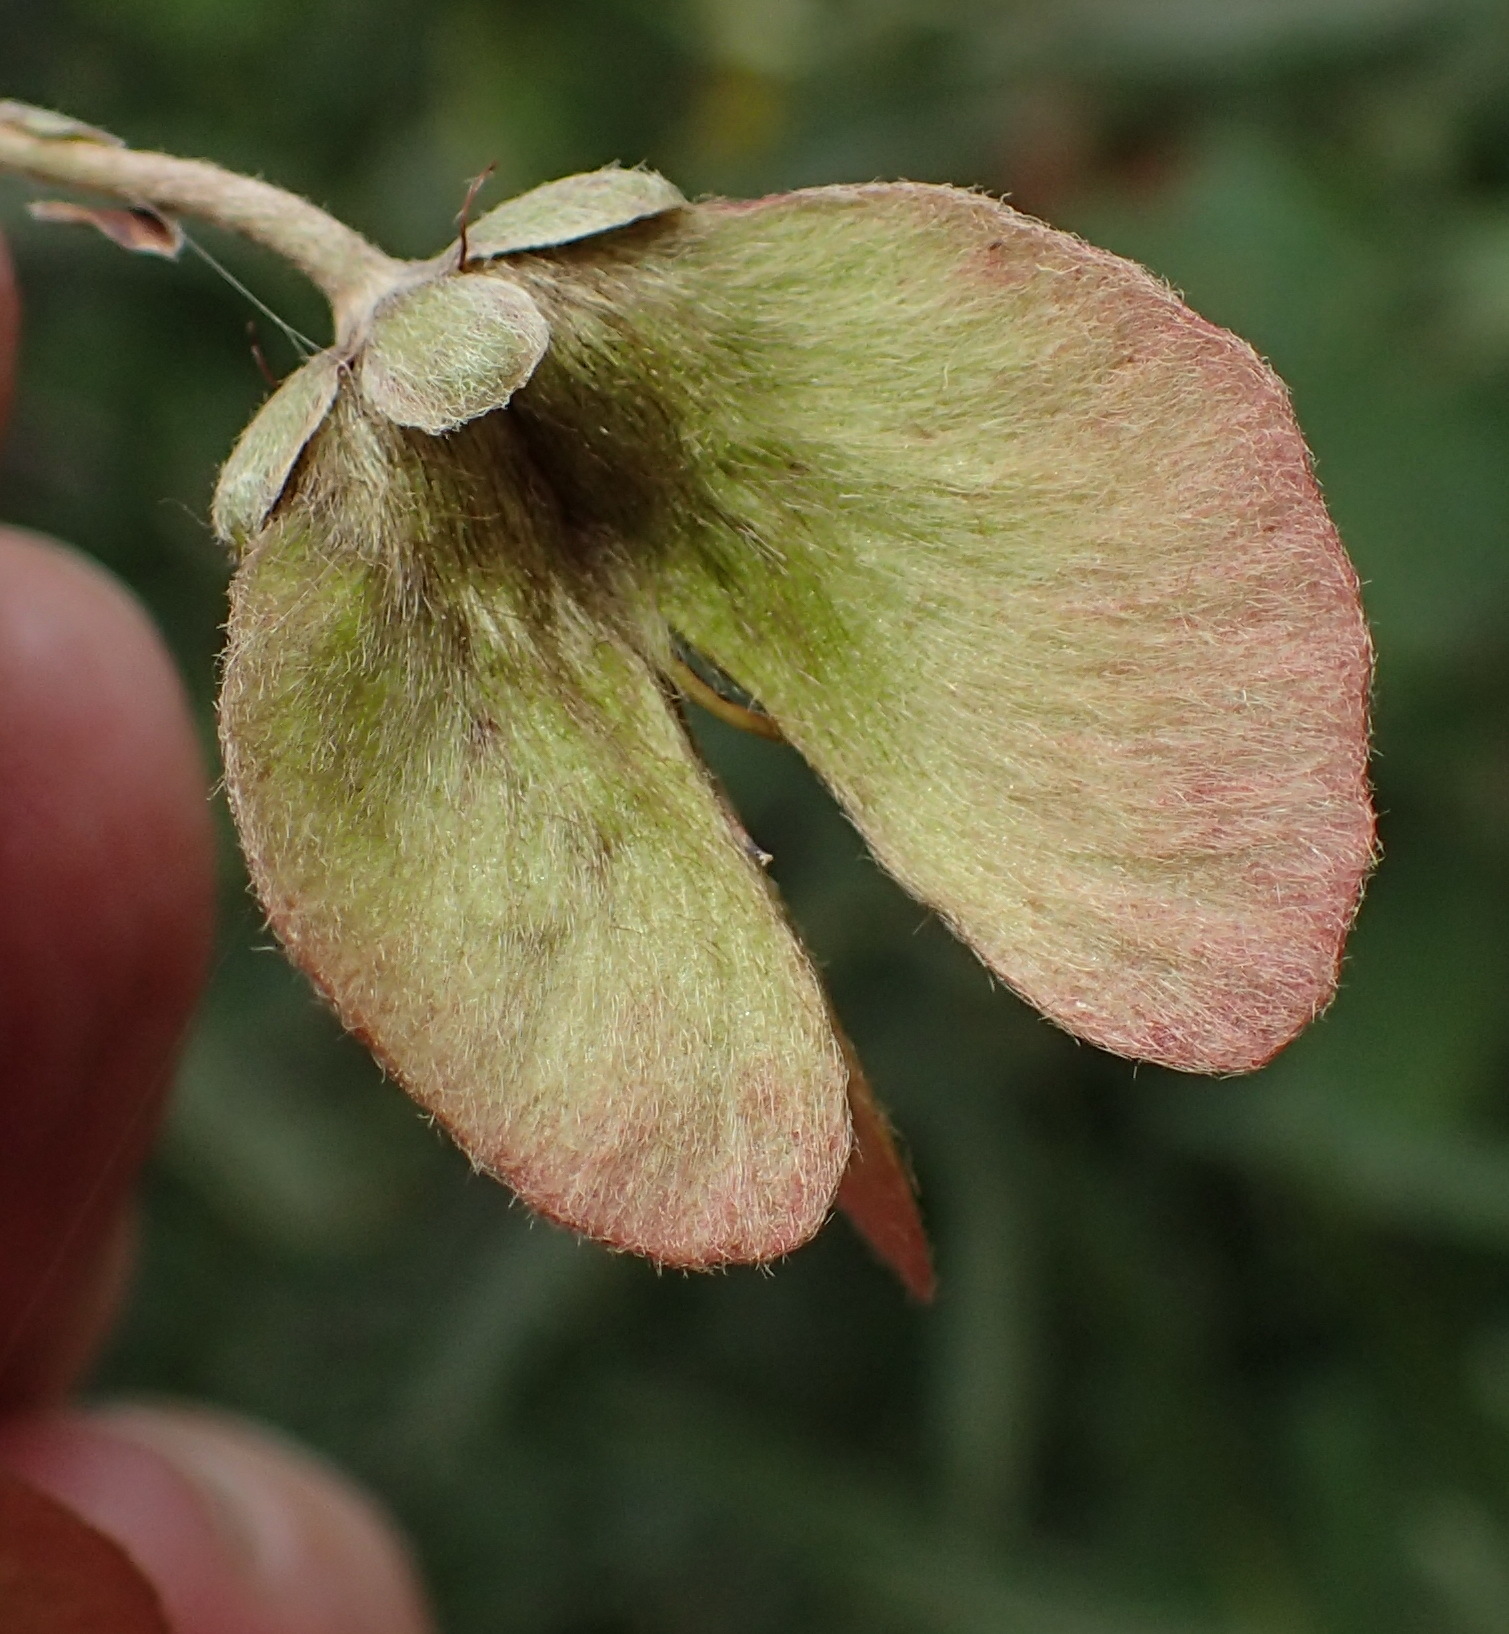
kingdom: Plantae
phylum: Tracheophyta
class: Magnoliopsida
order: Malpighiales
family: Malpighiaceae
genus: Sphedamnocarpus
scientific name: Sphedamnocarpus pruriens
